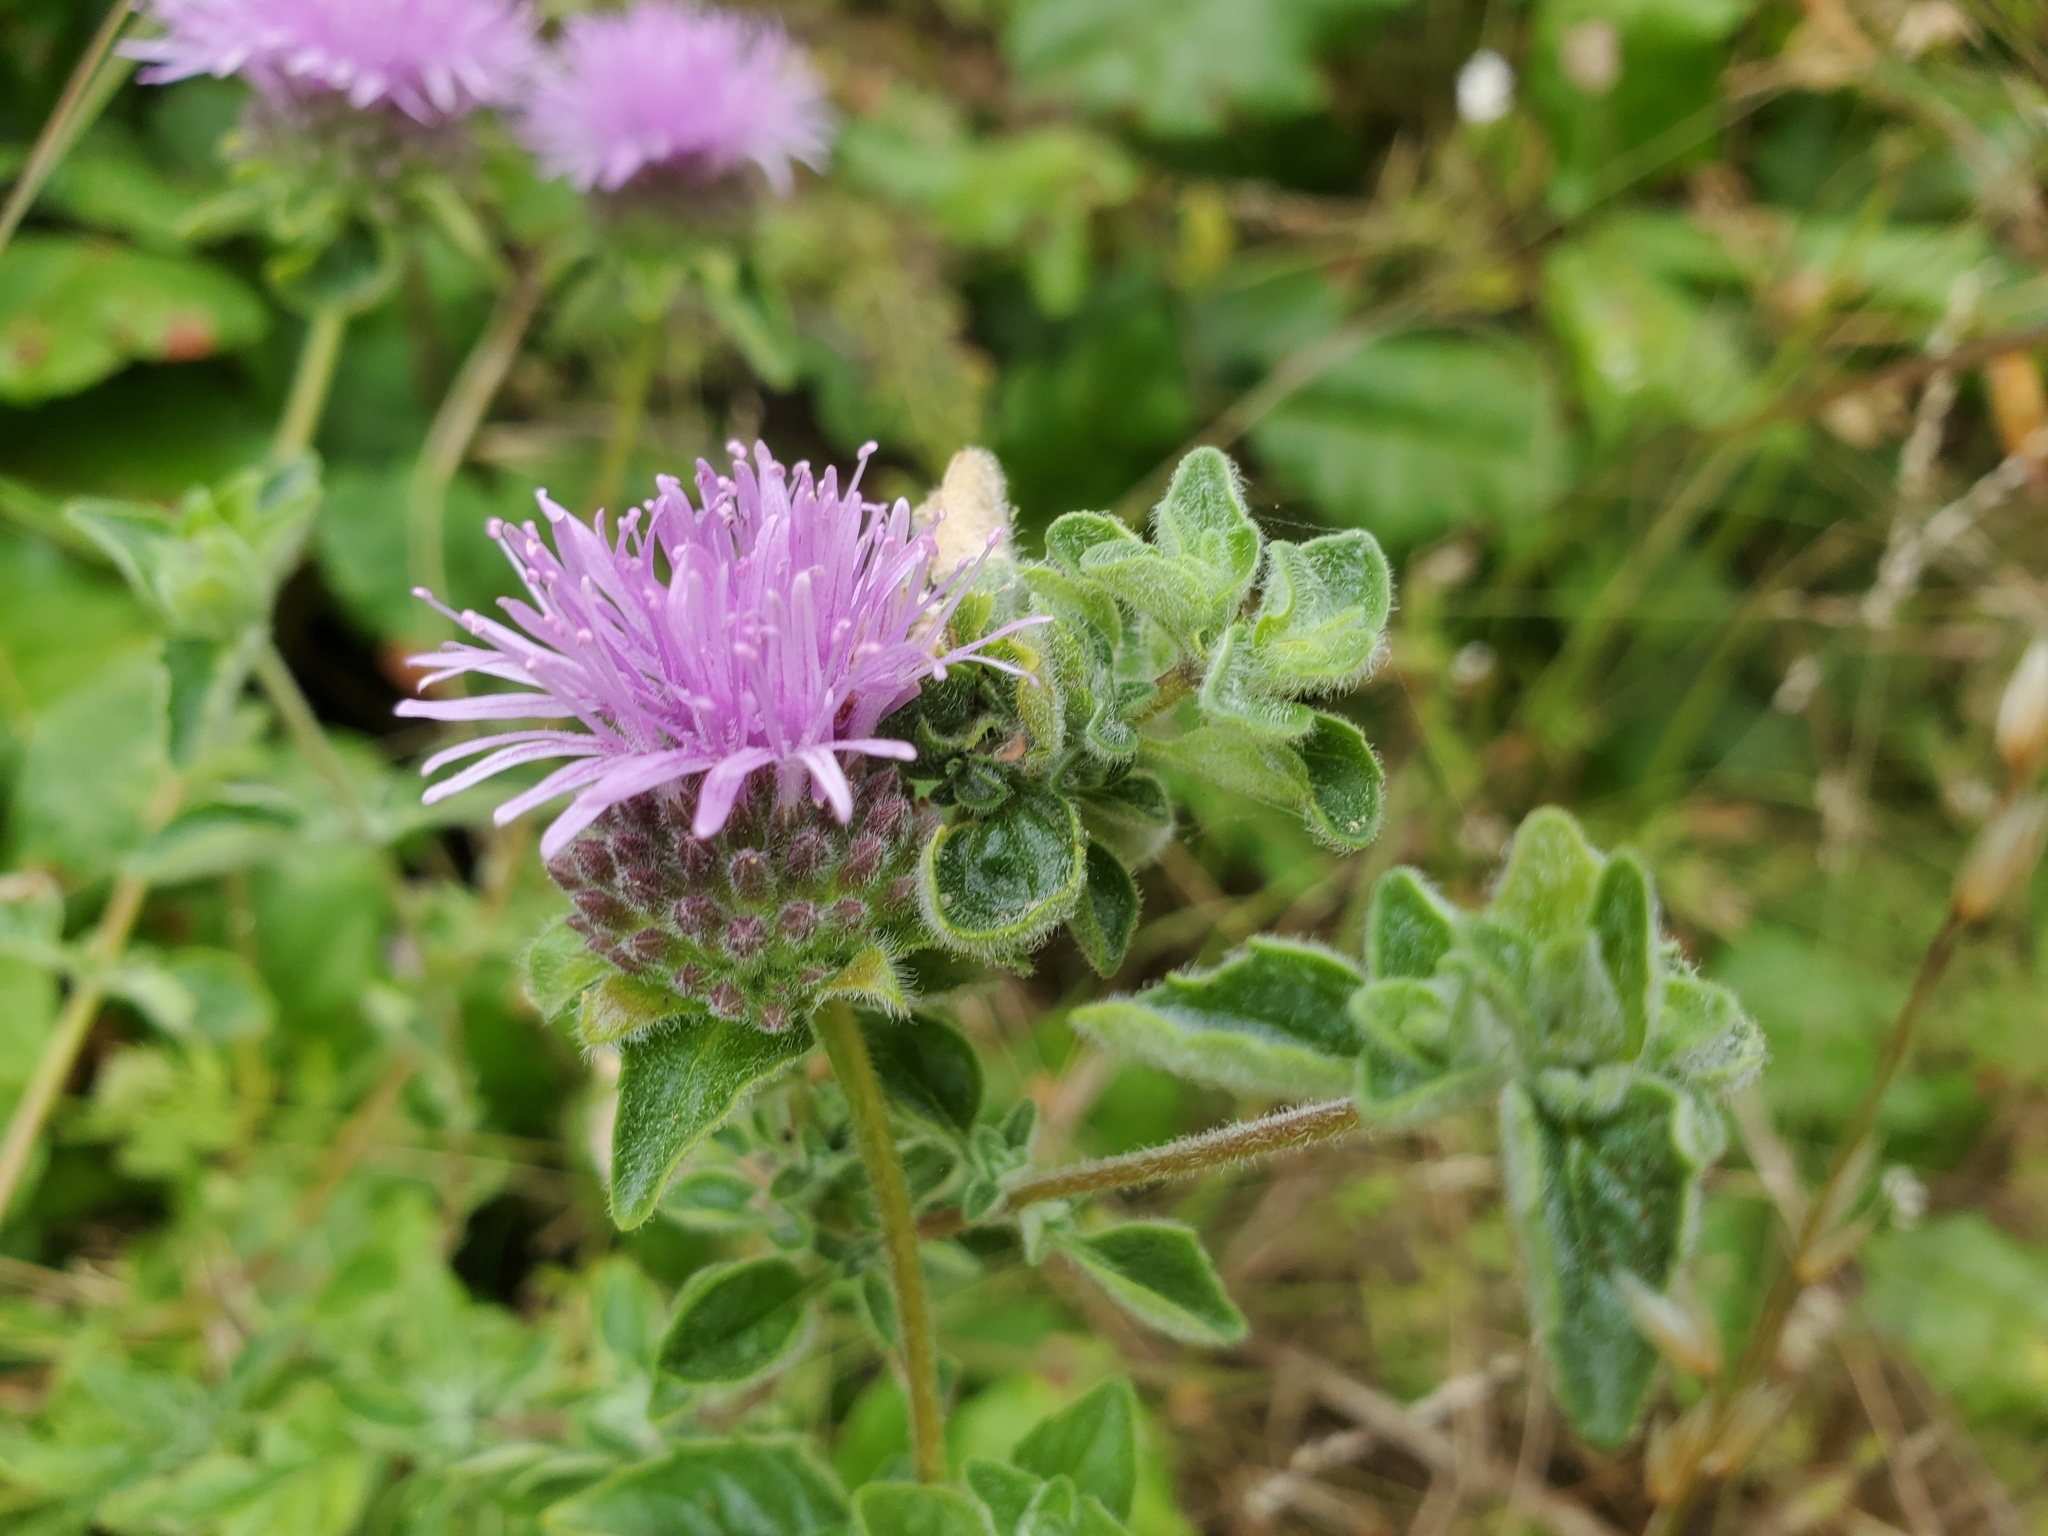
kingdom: Plantae
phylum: Tracheophyta
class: Magnoliopsida
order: Lamiales
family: Lamiaceae
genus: Monardella
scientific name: Monardella odoratissima
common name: Pacific monardella
